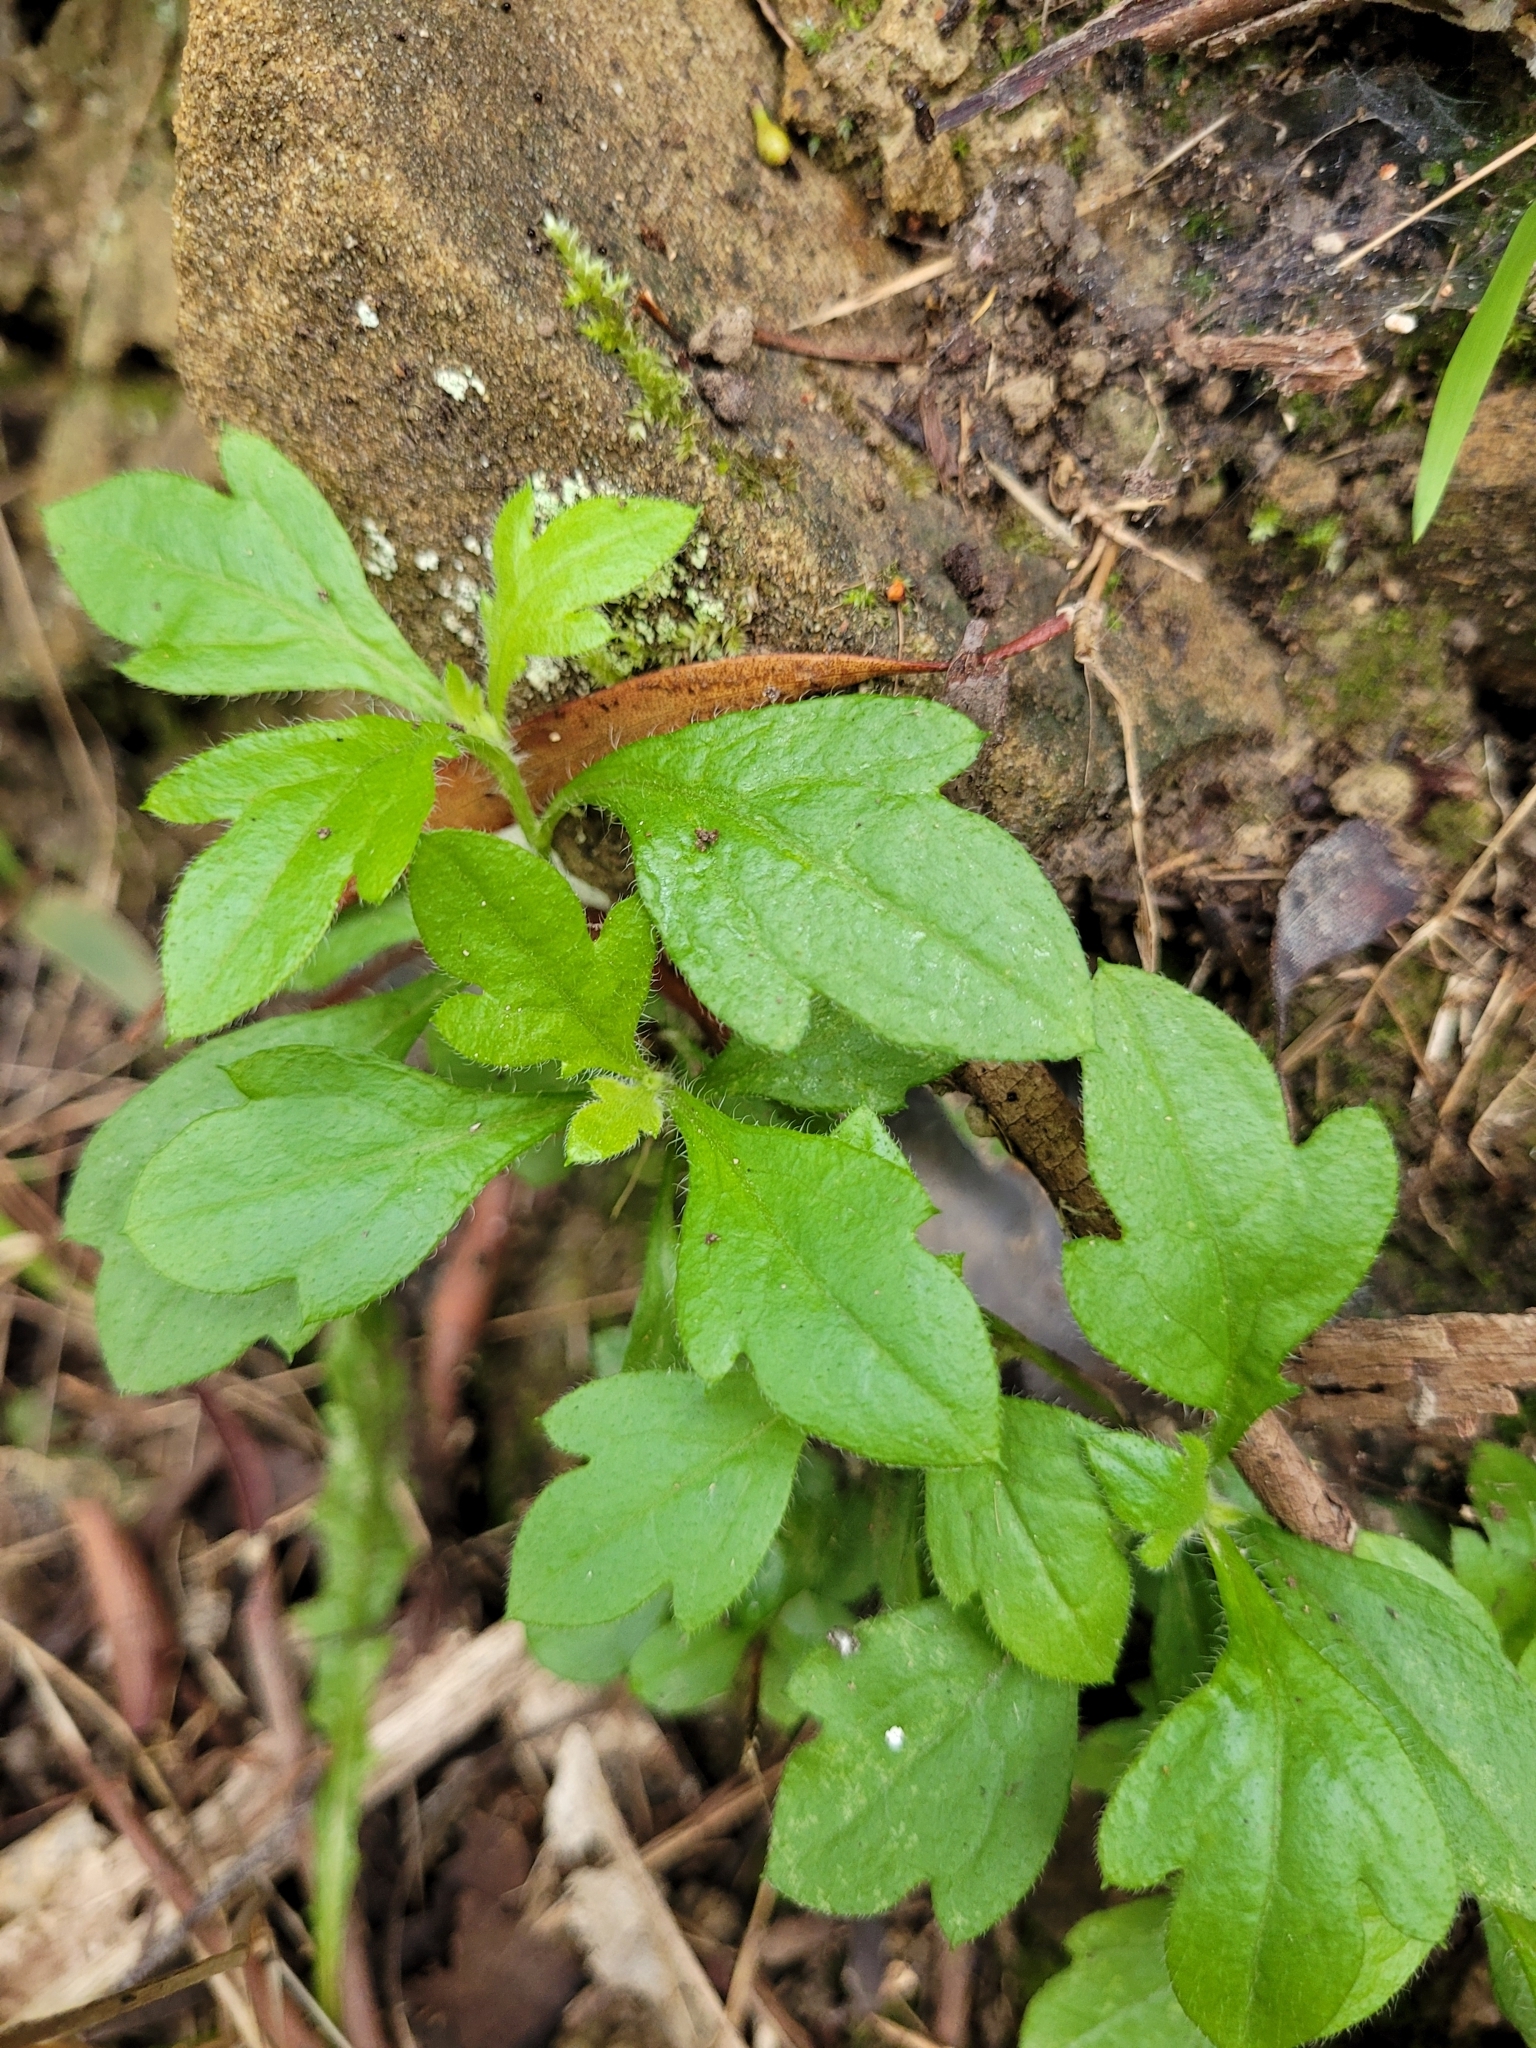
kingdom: Plantae
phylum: Tracheophyta
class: Magnoliopsida
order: Asterales
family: Asteraceae
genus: Erigeron
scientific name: Erigeron karvinskianus
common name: Mexican fleabane
